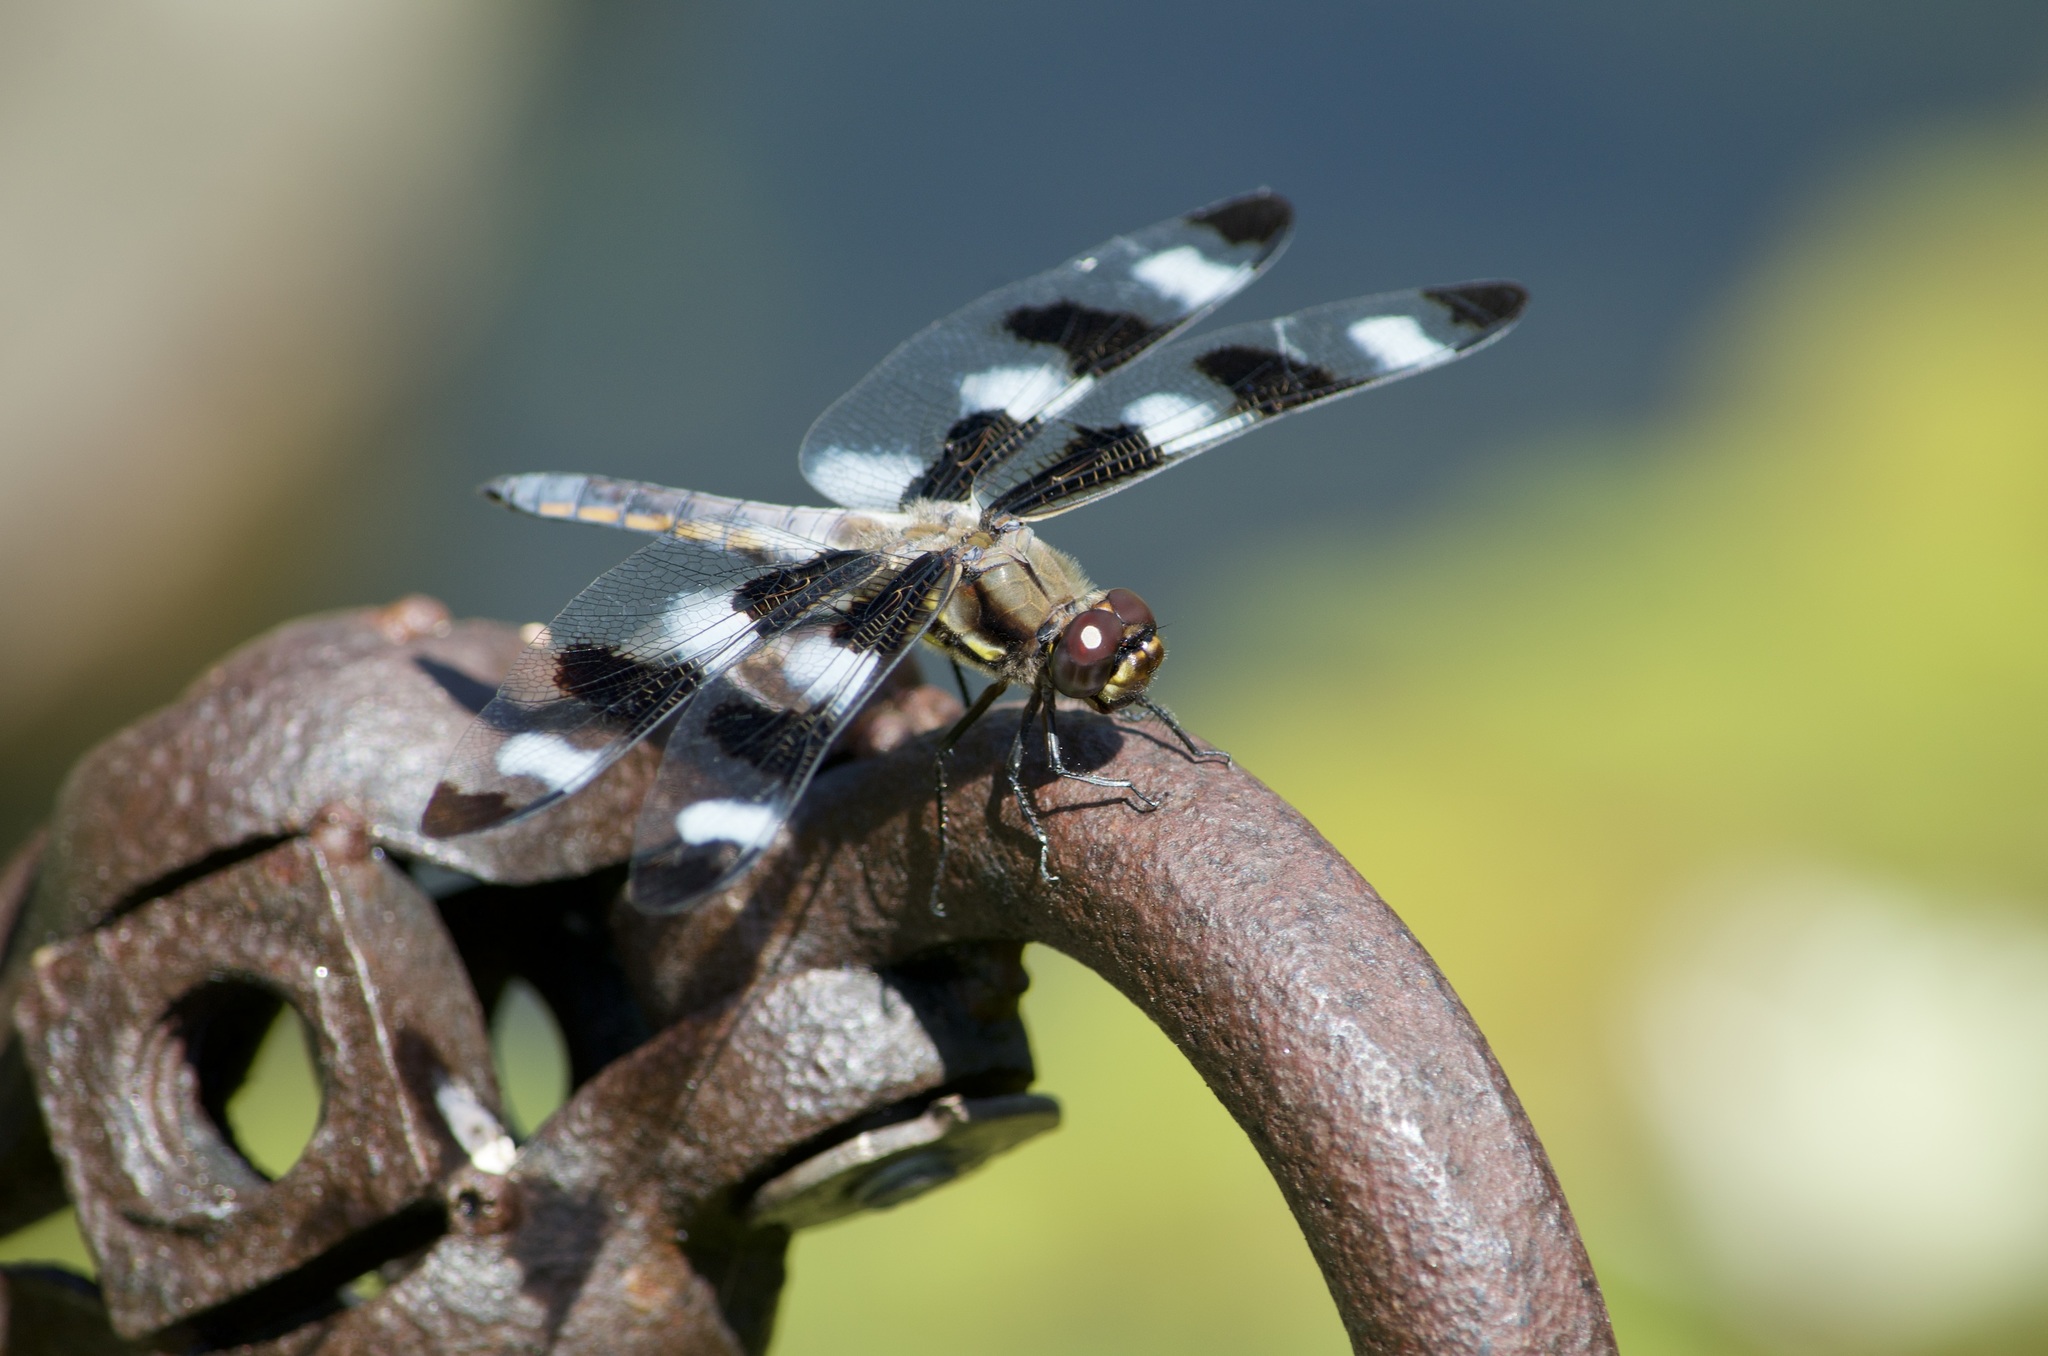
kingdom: Animalia
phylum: Arthropoda
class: Insecta
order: Odonata
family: Libellulidae
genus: Libellula
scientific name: Libellula pulchella
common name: Twelve-spotted skimmer
